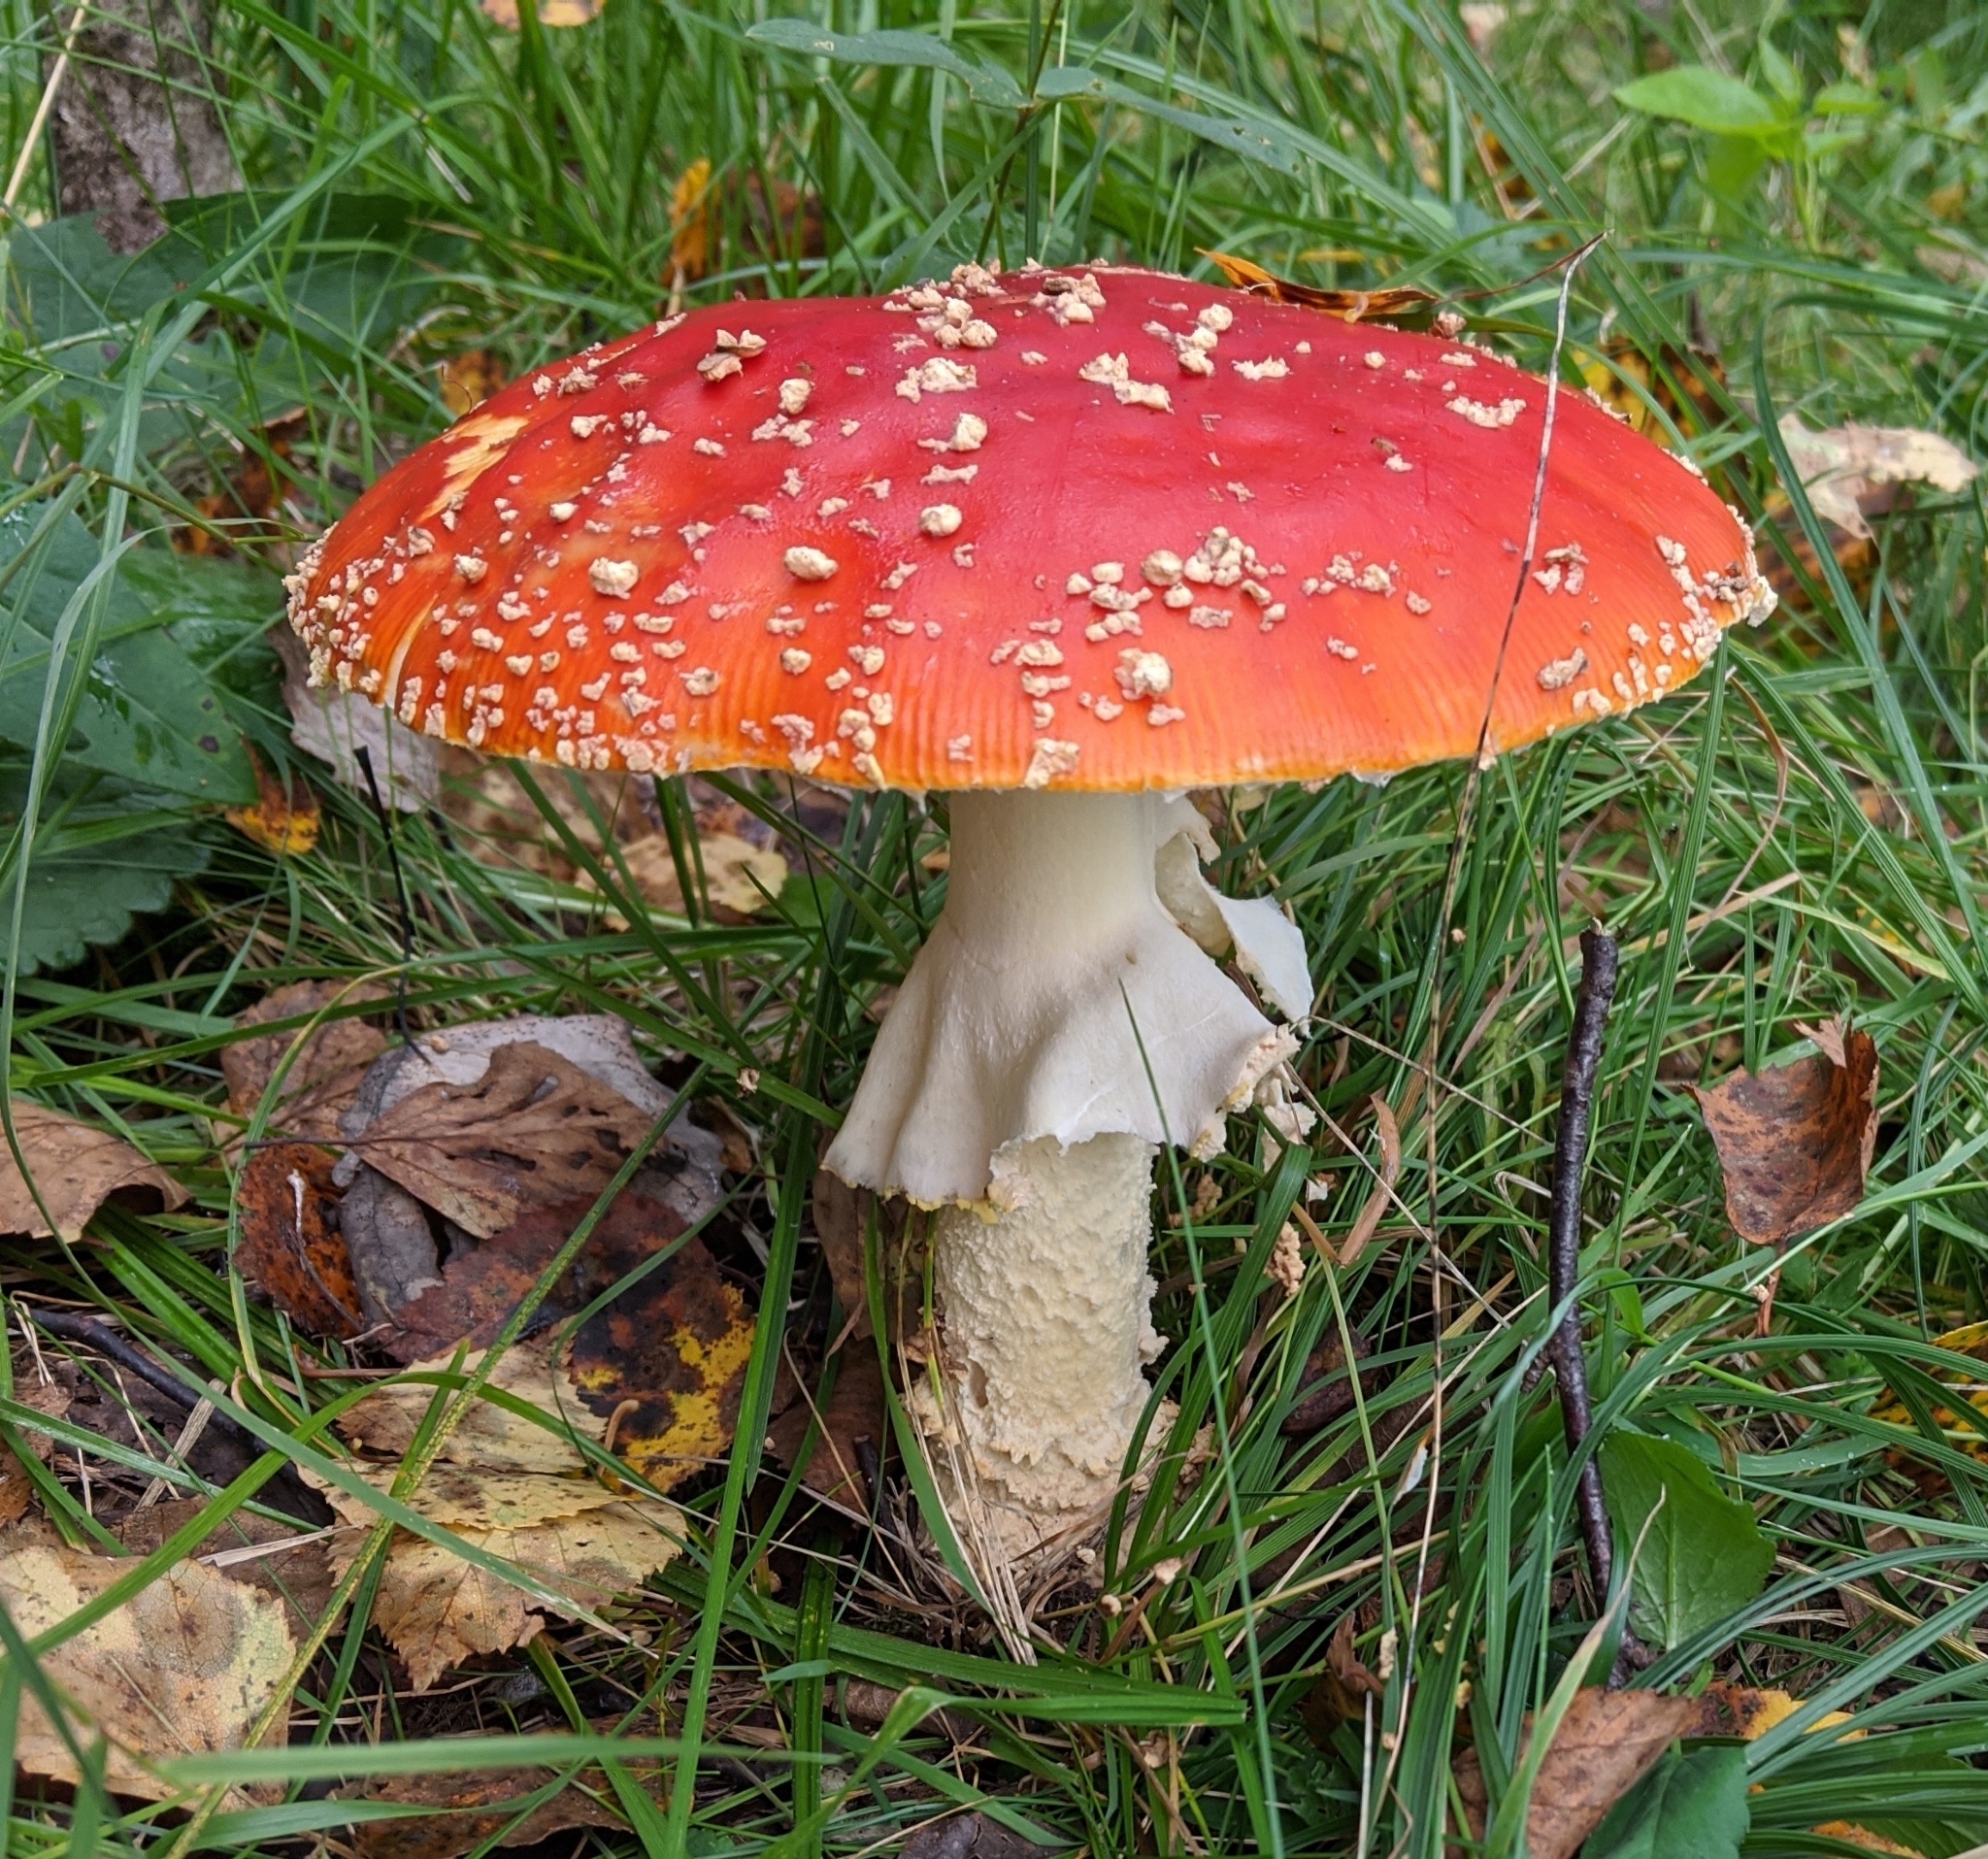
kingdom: Fungi
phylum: Basidiomycota
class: Agaricomycetes
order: Agaricales
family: Amanitaceae
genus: Amanita
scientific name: Amanita muscaria
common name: Fly agaric
